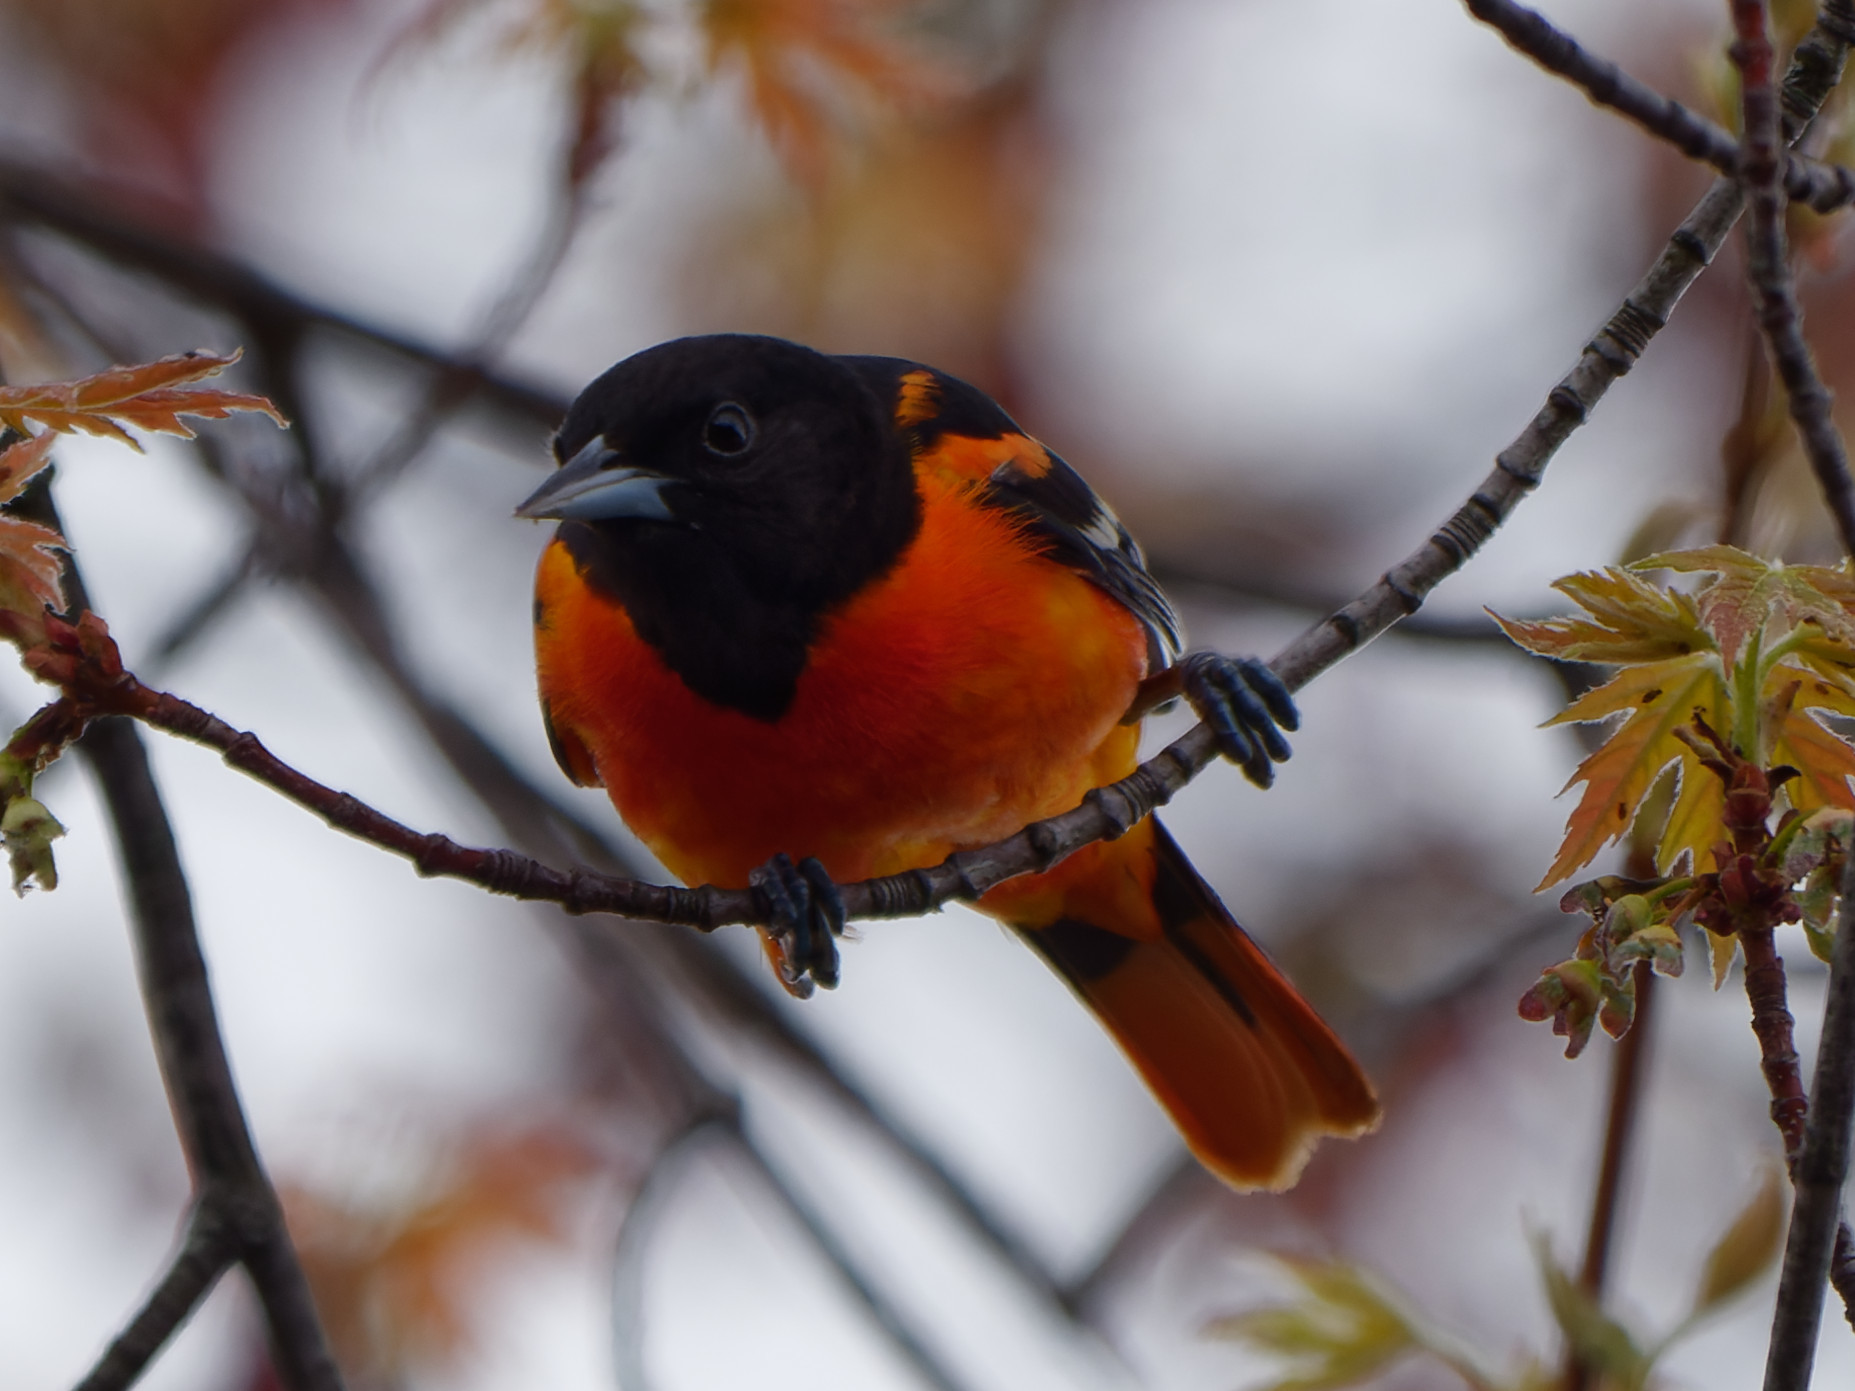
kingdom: Animalia
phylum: Chordata
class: Aves
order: Passeriformes
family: Icteridae
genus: Icterus
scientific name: Icterus galbula
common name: Baltimore oriole
